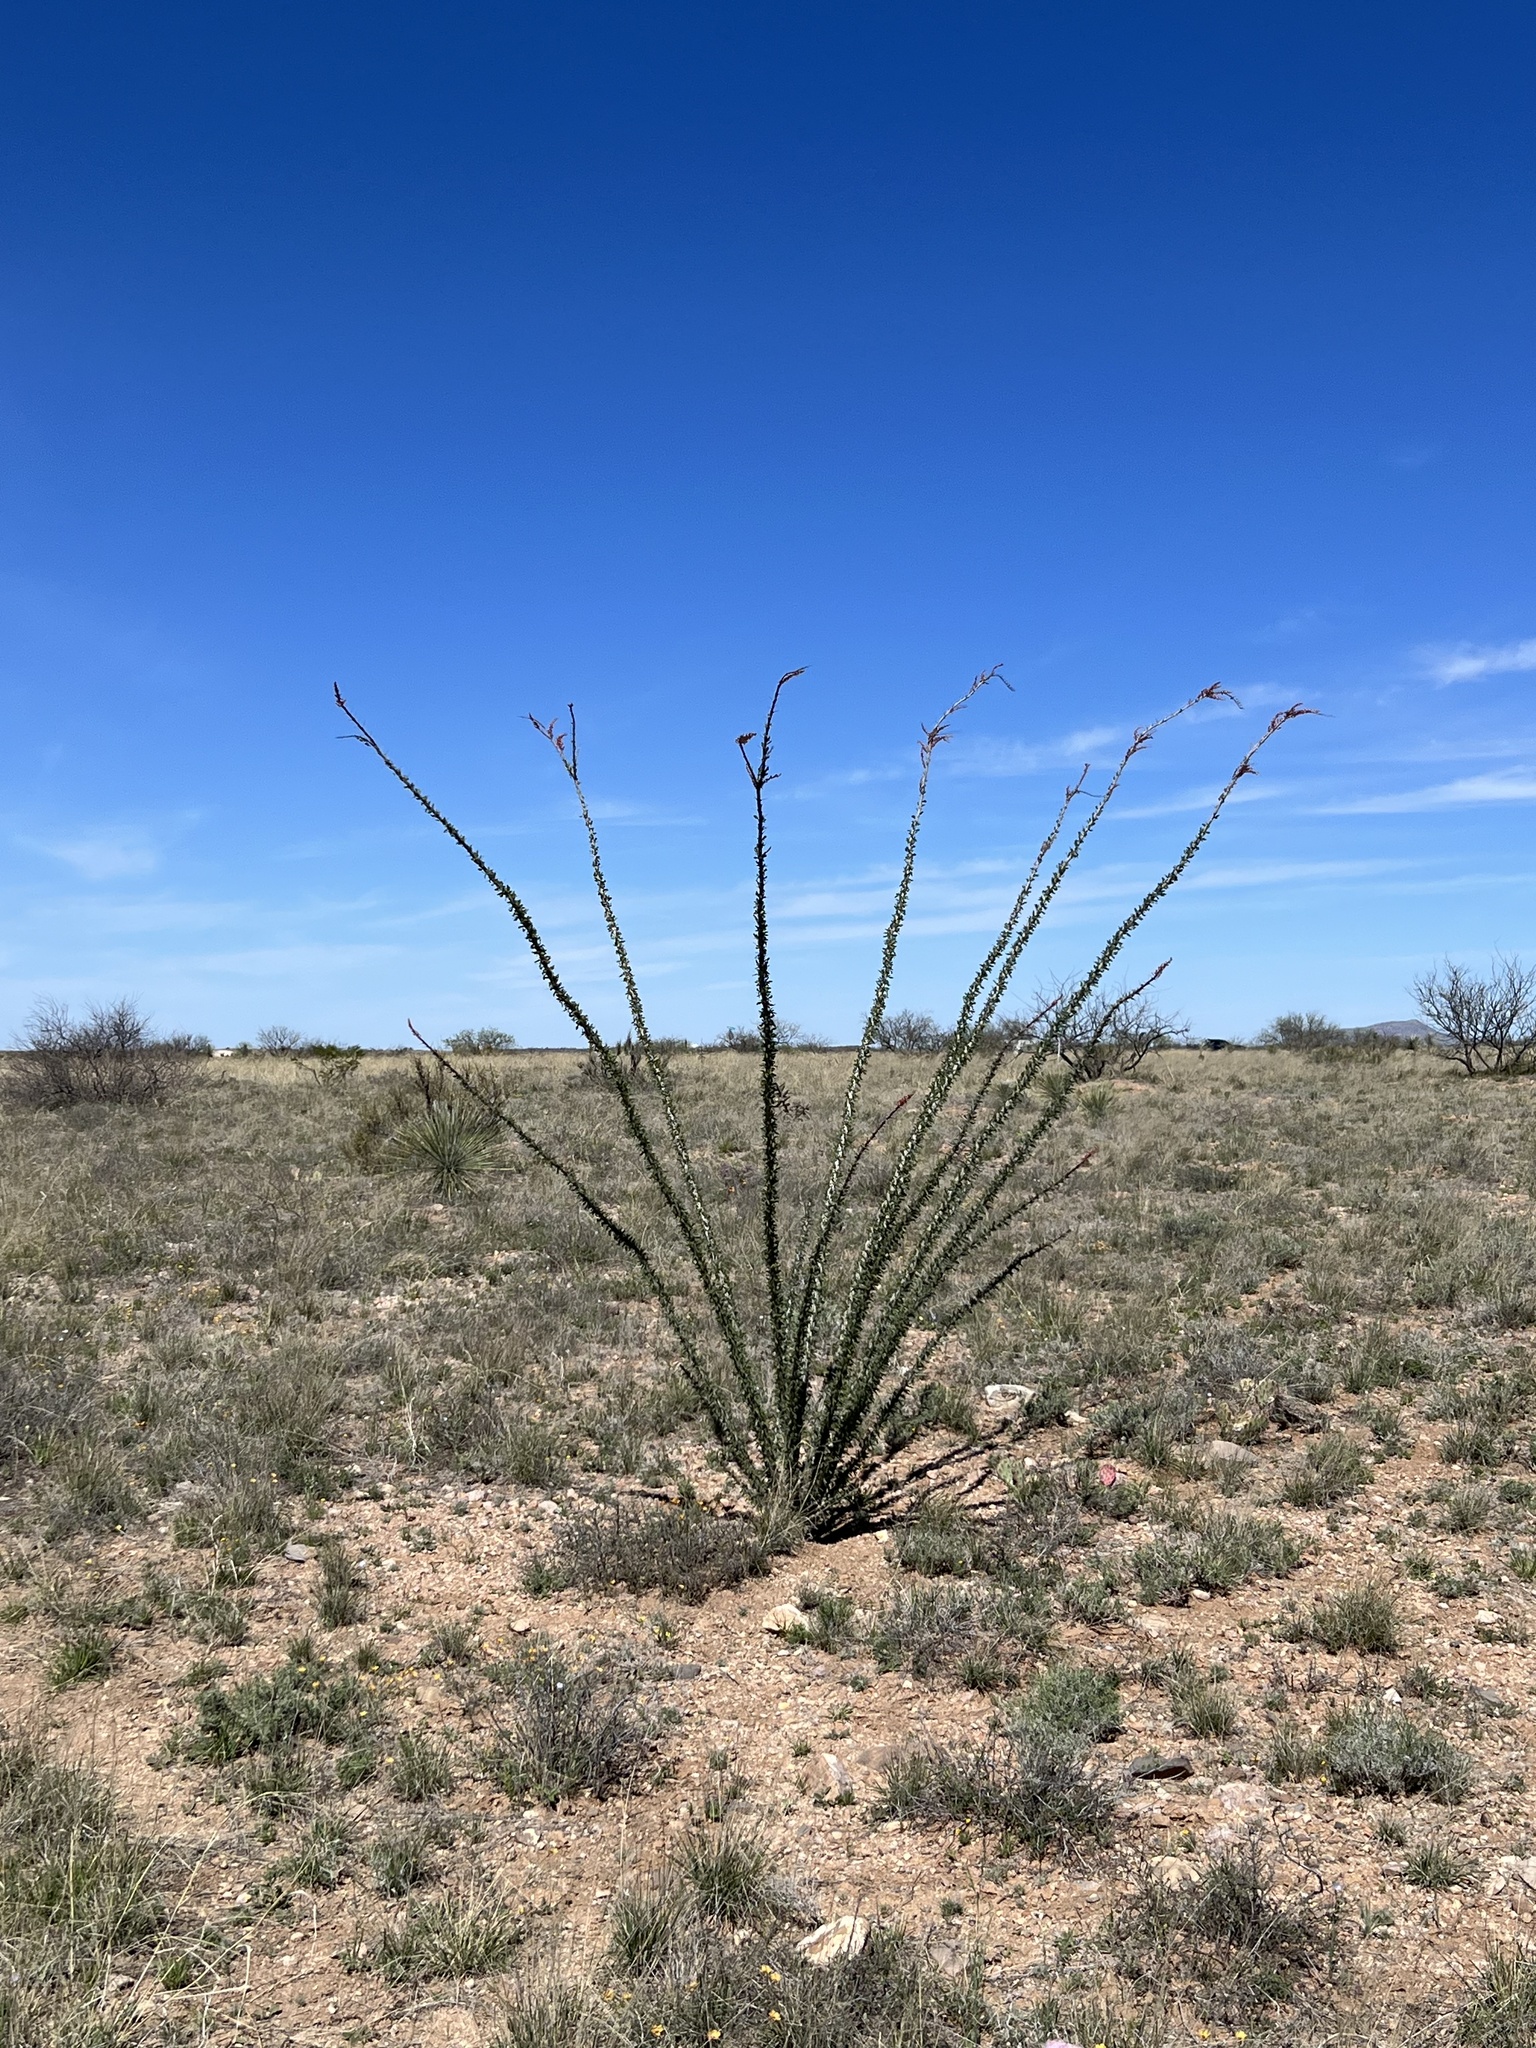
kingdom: Plantae
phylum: Tracheophyta
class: Magnoliopsida
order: Ericales
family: Fouquieriaceae
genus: Fouquieria
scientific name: Fouquieria splendens
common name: Vine-cactus
